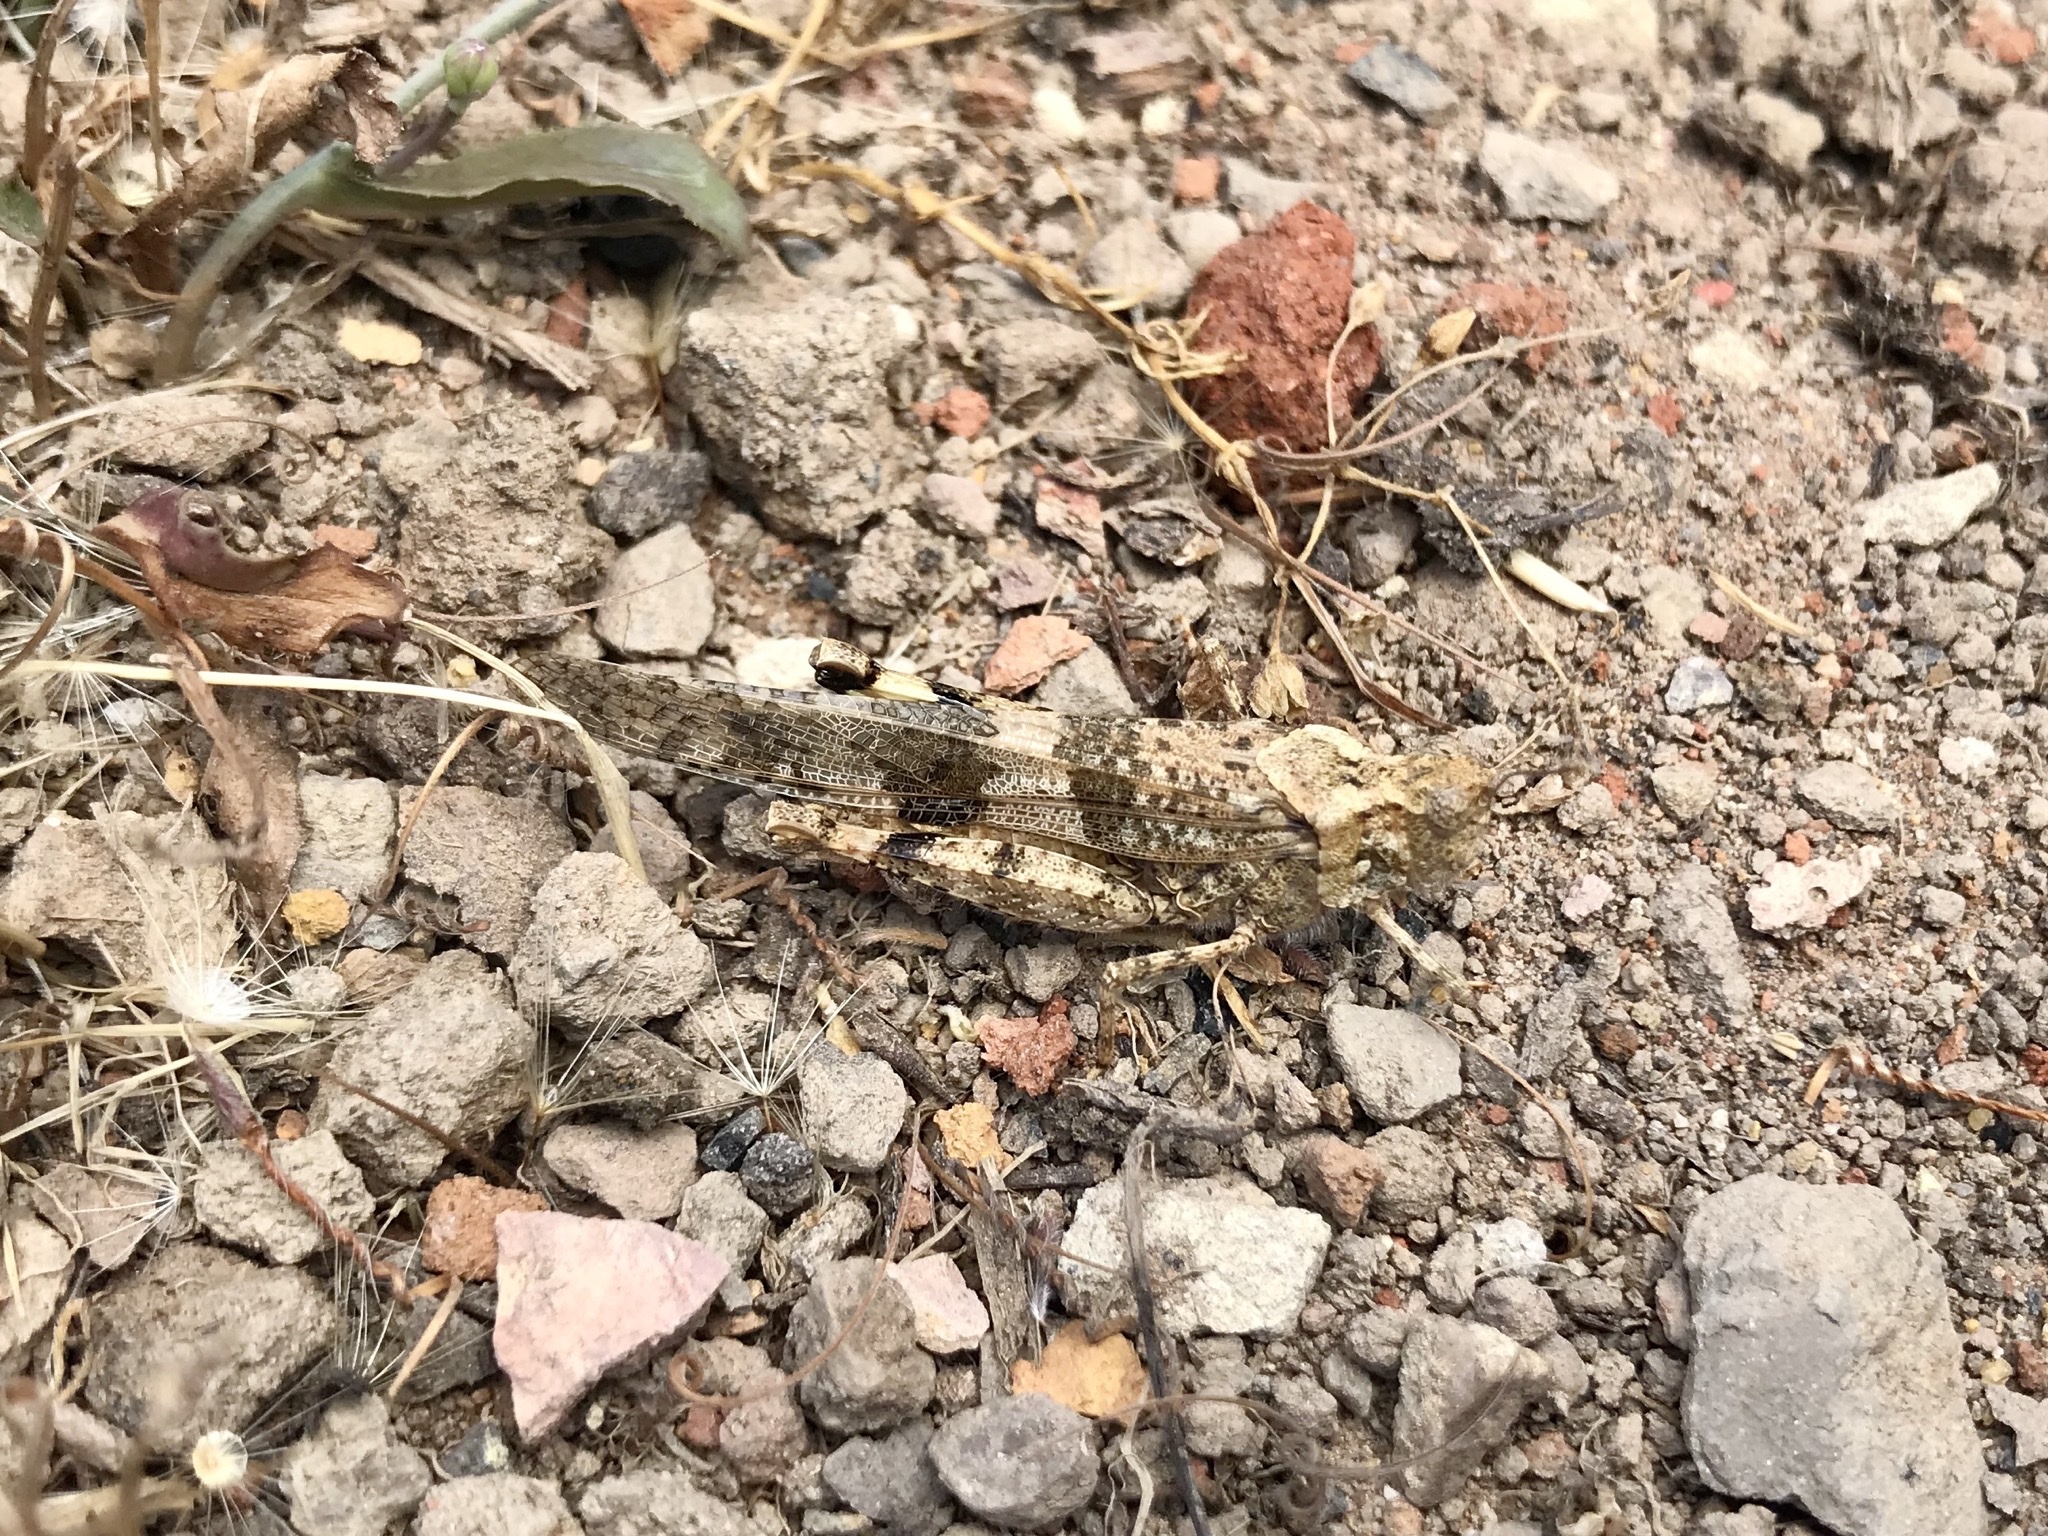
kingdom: Animalia
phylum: Arthropoda
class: Insecta
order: Orthoptera
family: Acrididae
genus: Trimerotropis
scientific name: Trimerotropis pallidipennis
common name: Pallid-winged grasshopper
